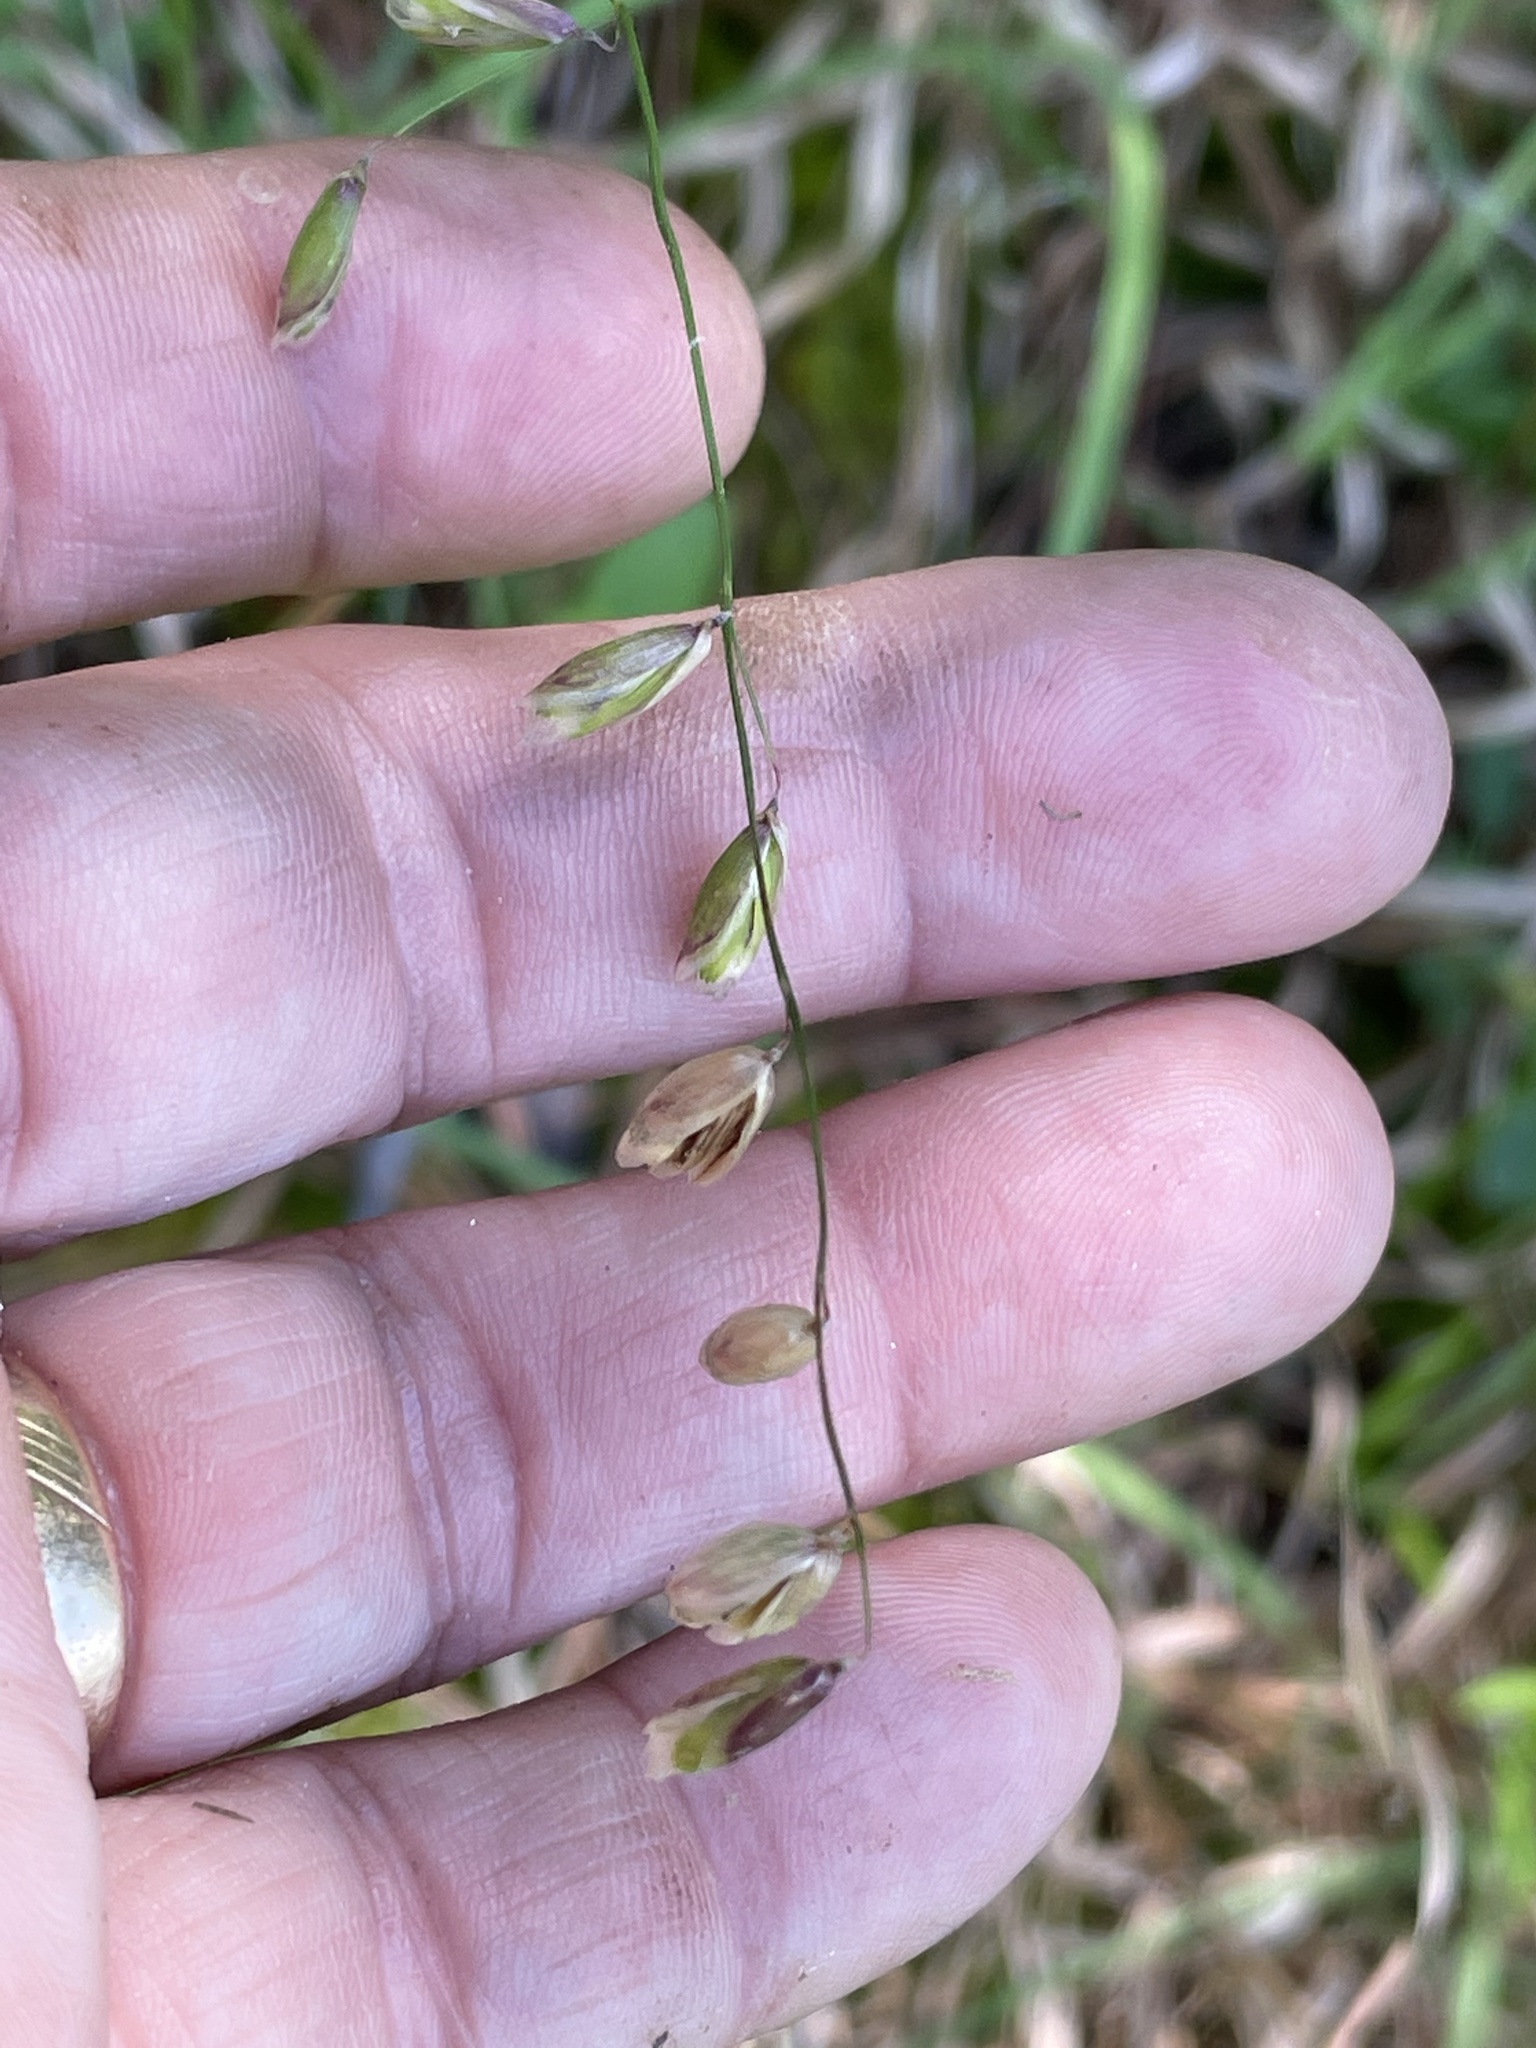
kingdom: Plantae
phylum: Tracheophyta
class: Liliopsida
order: Poales
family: Poaceae
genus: Melica
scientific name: Melica mutica
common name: Two-flower melic
